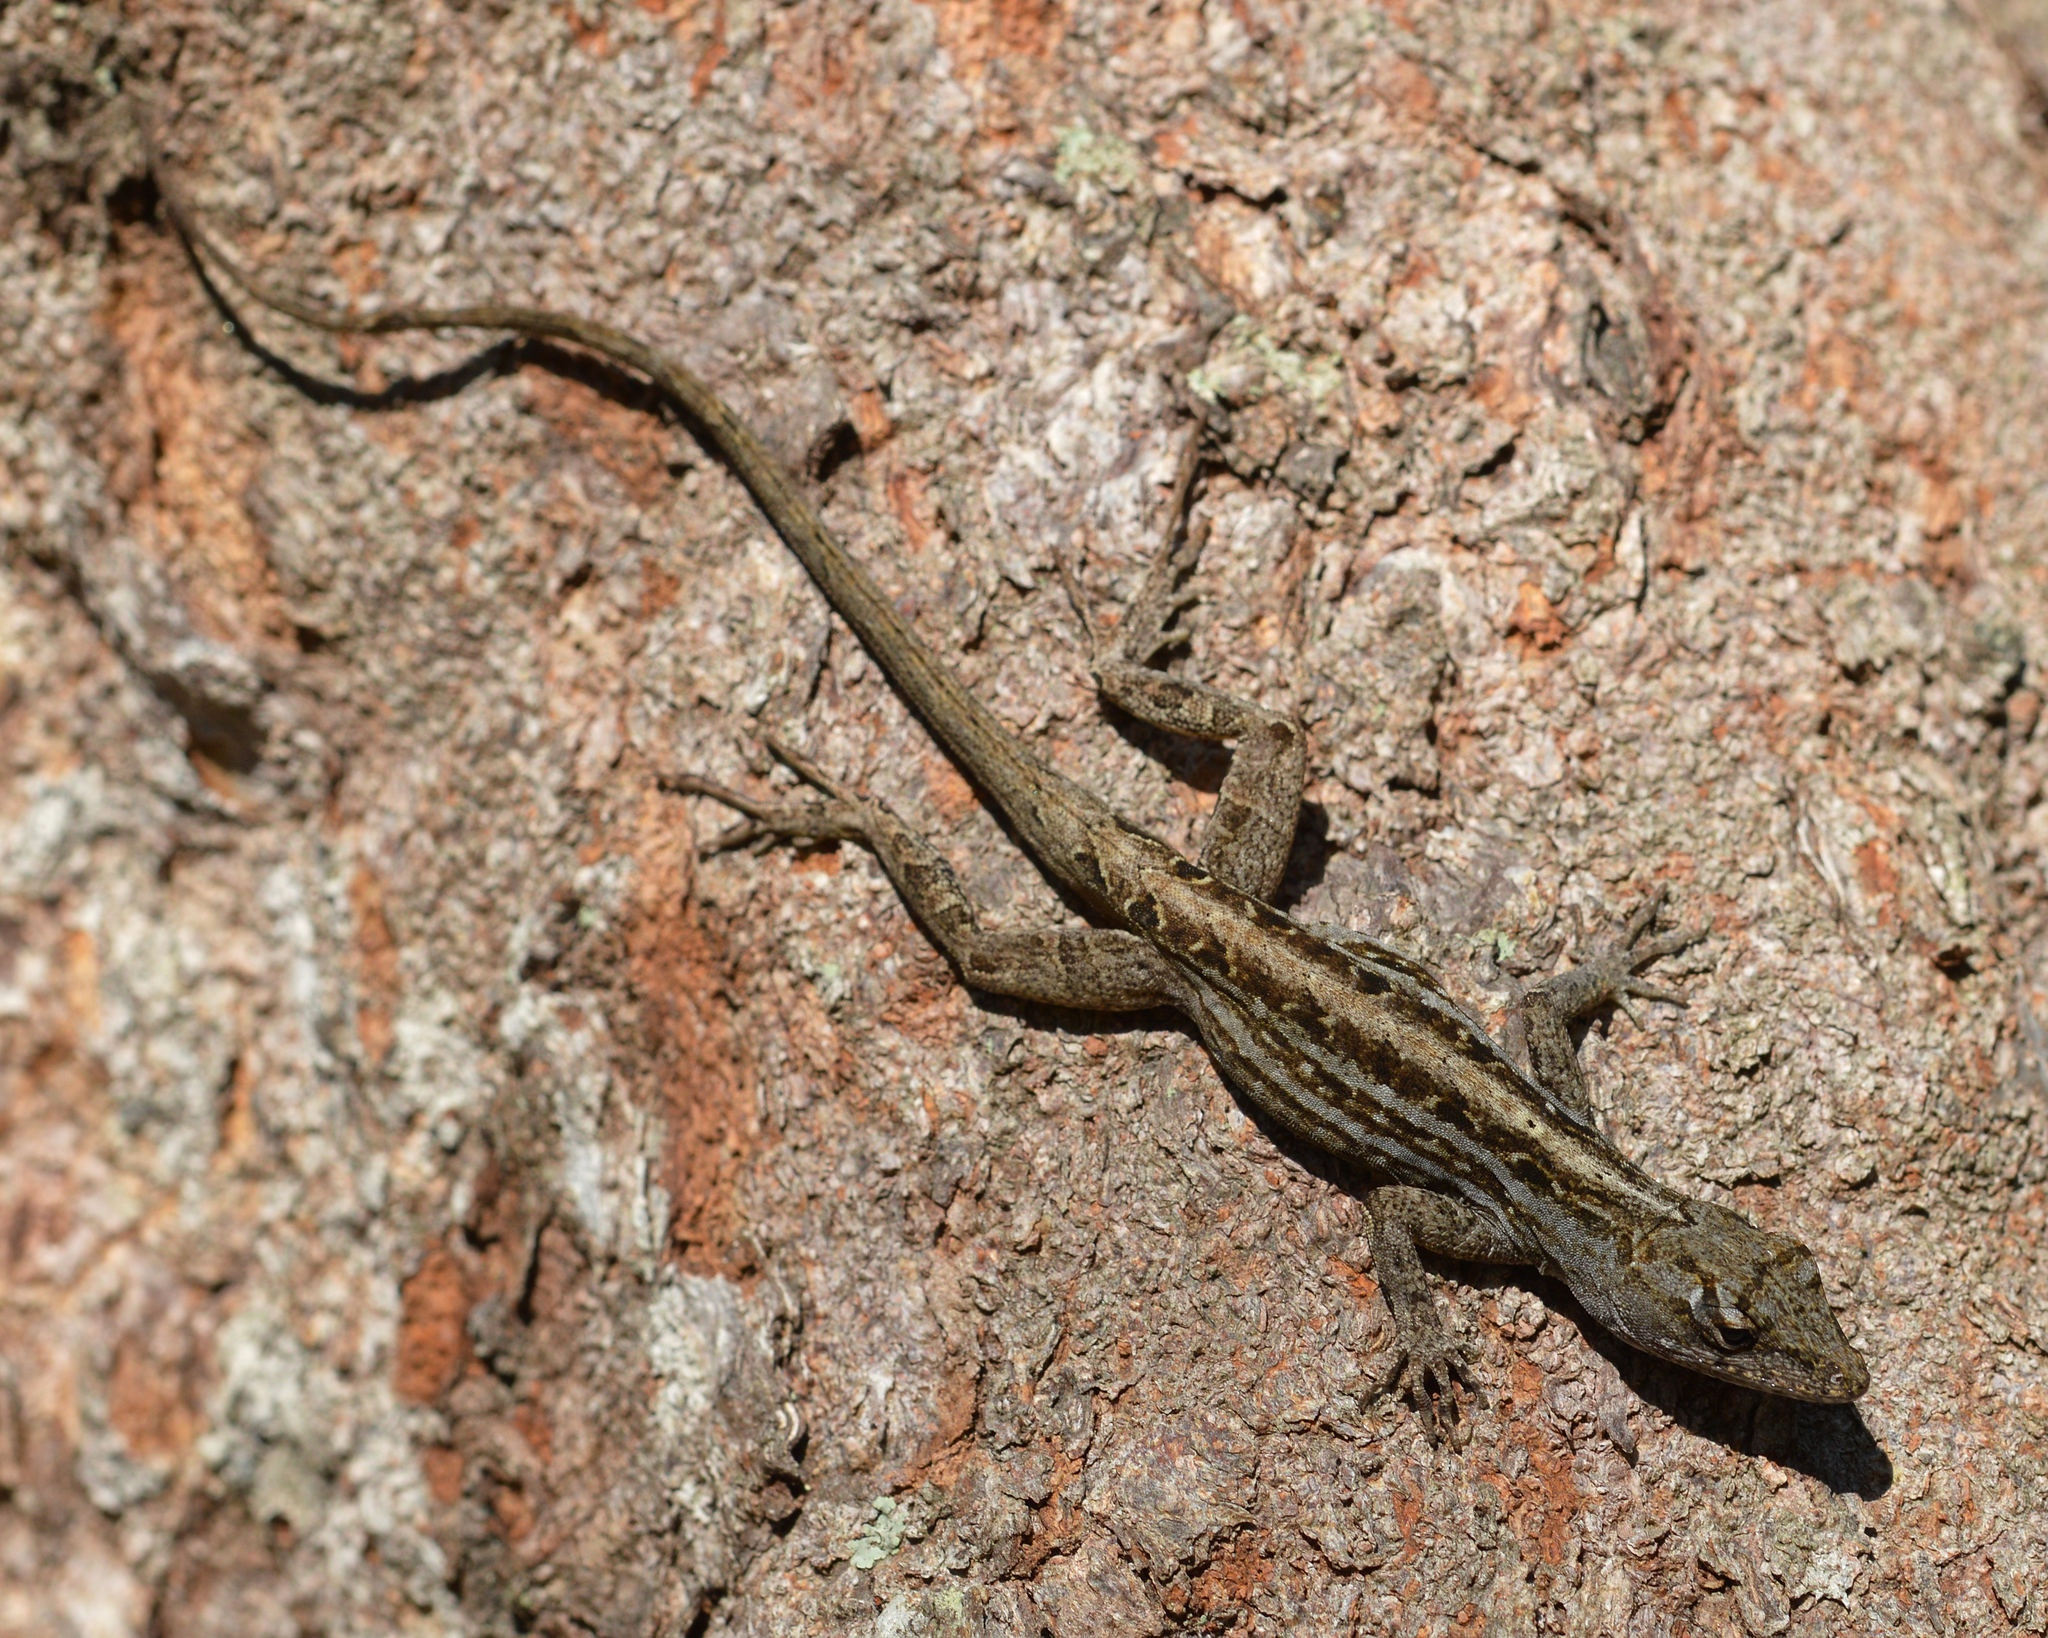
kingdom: Animalia
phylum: Chordata
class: Squamata
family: Dactyloidae
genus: Anolis
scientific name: Anolis sagrei
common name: Brown anole
